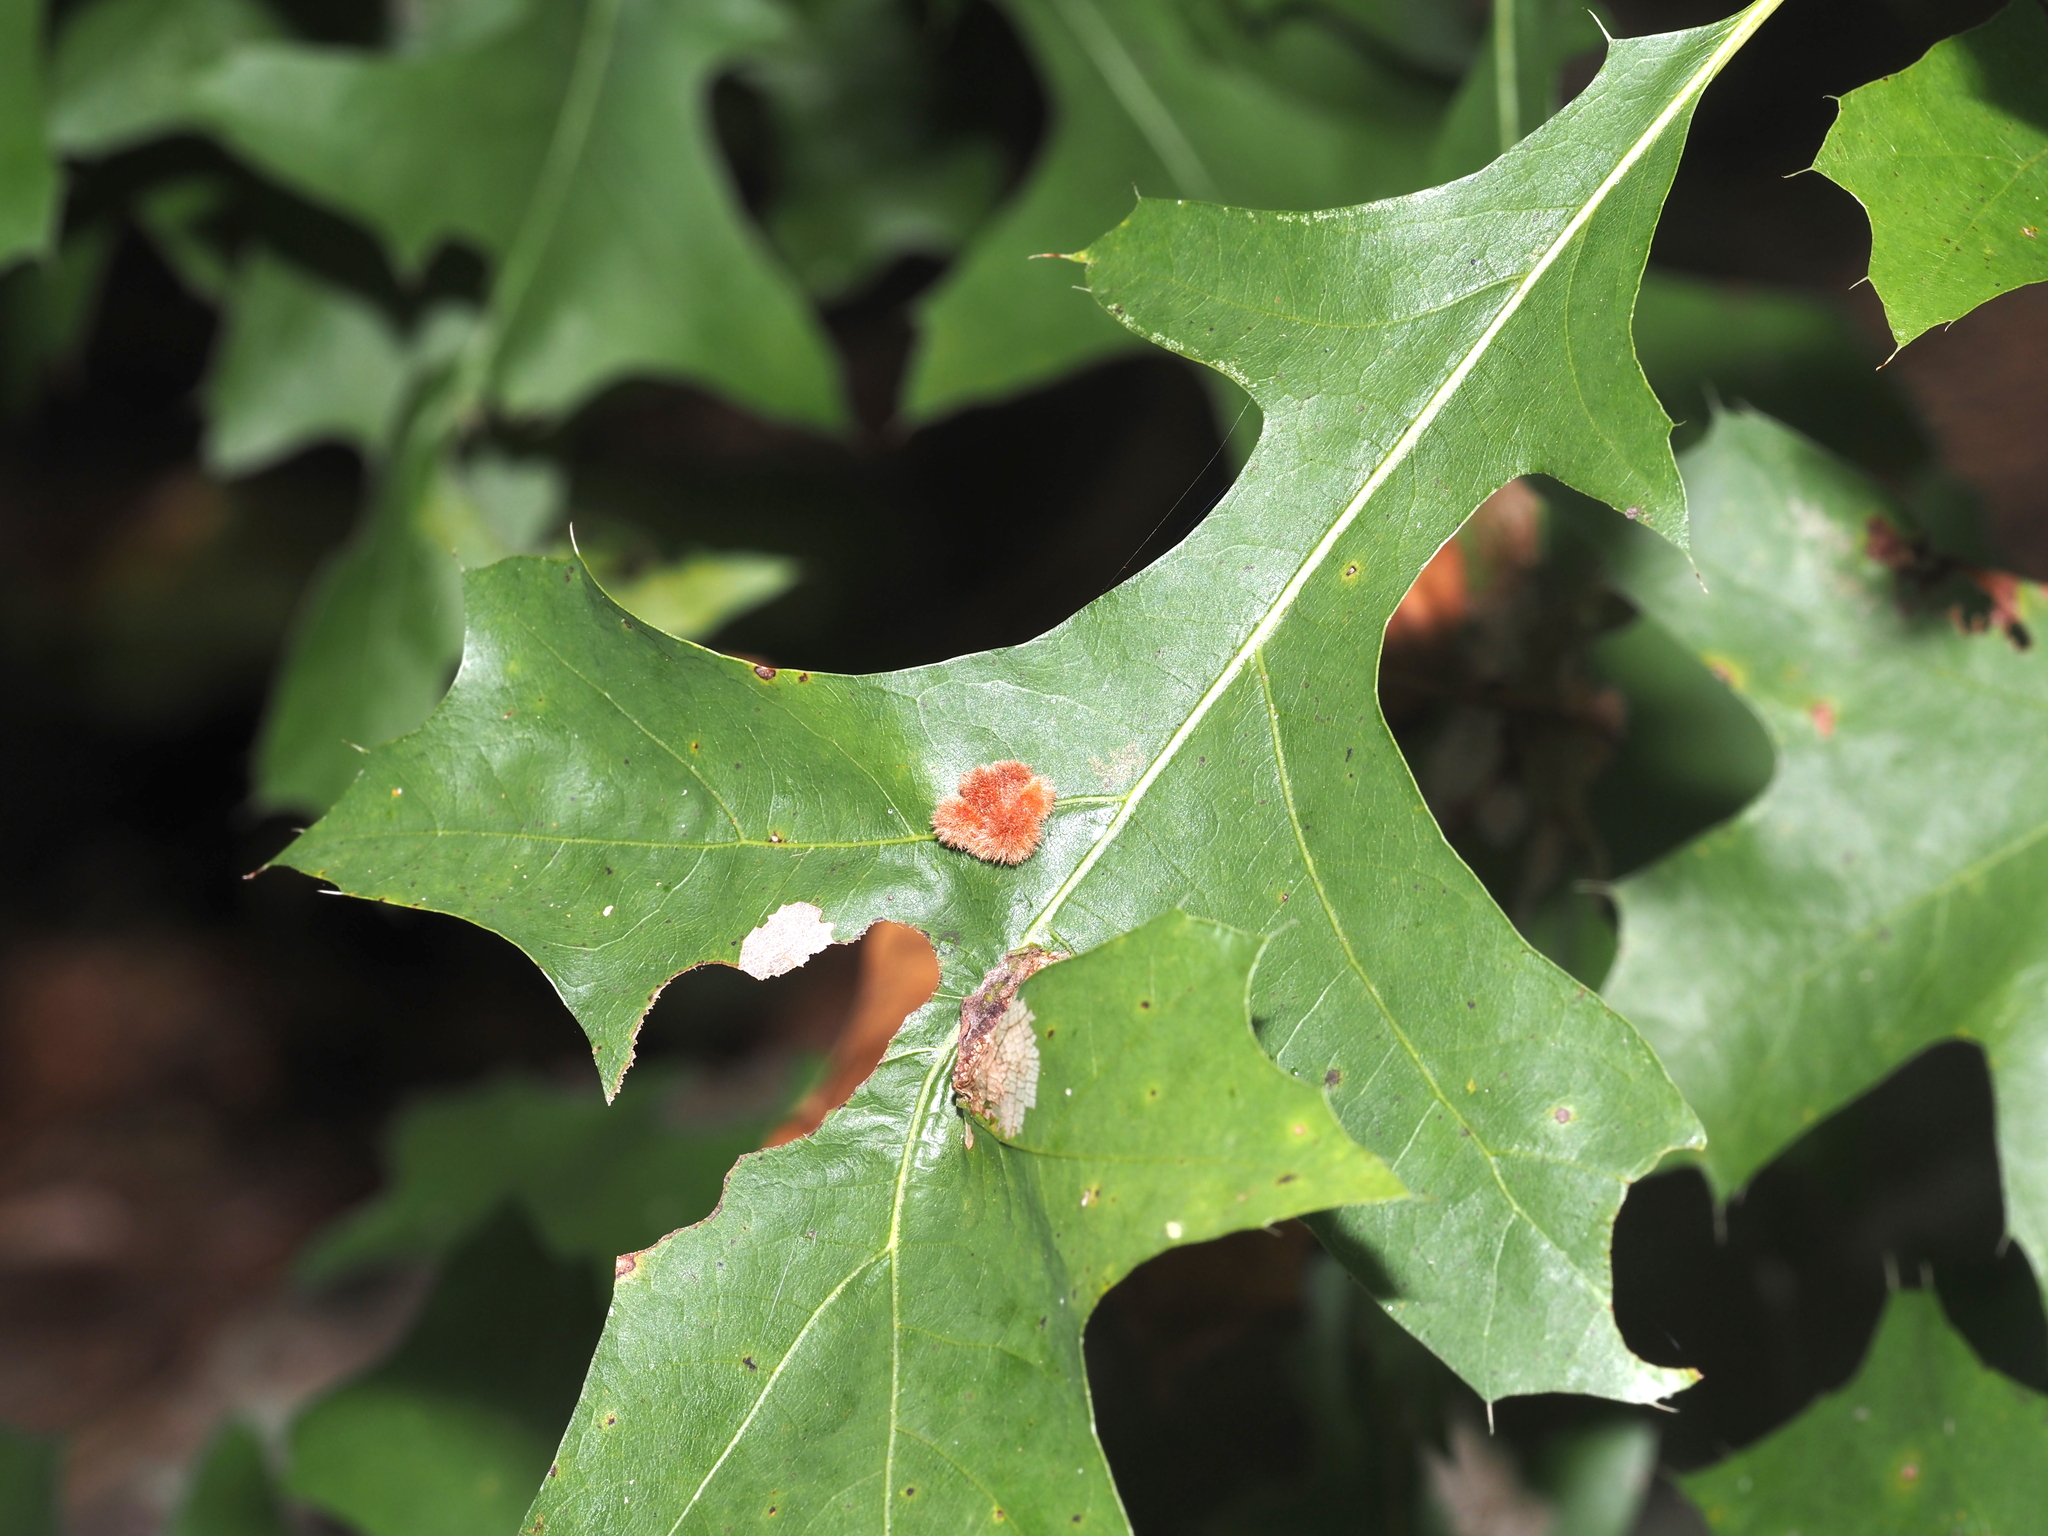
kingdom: Animalia
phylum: Arthropoda
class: Insecta
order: Hymenoptera
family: Cynipidae
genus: Callirhytis
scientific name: Callirhytis
